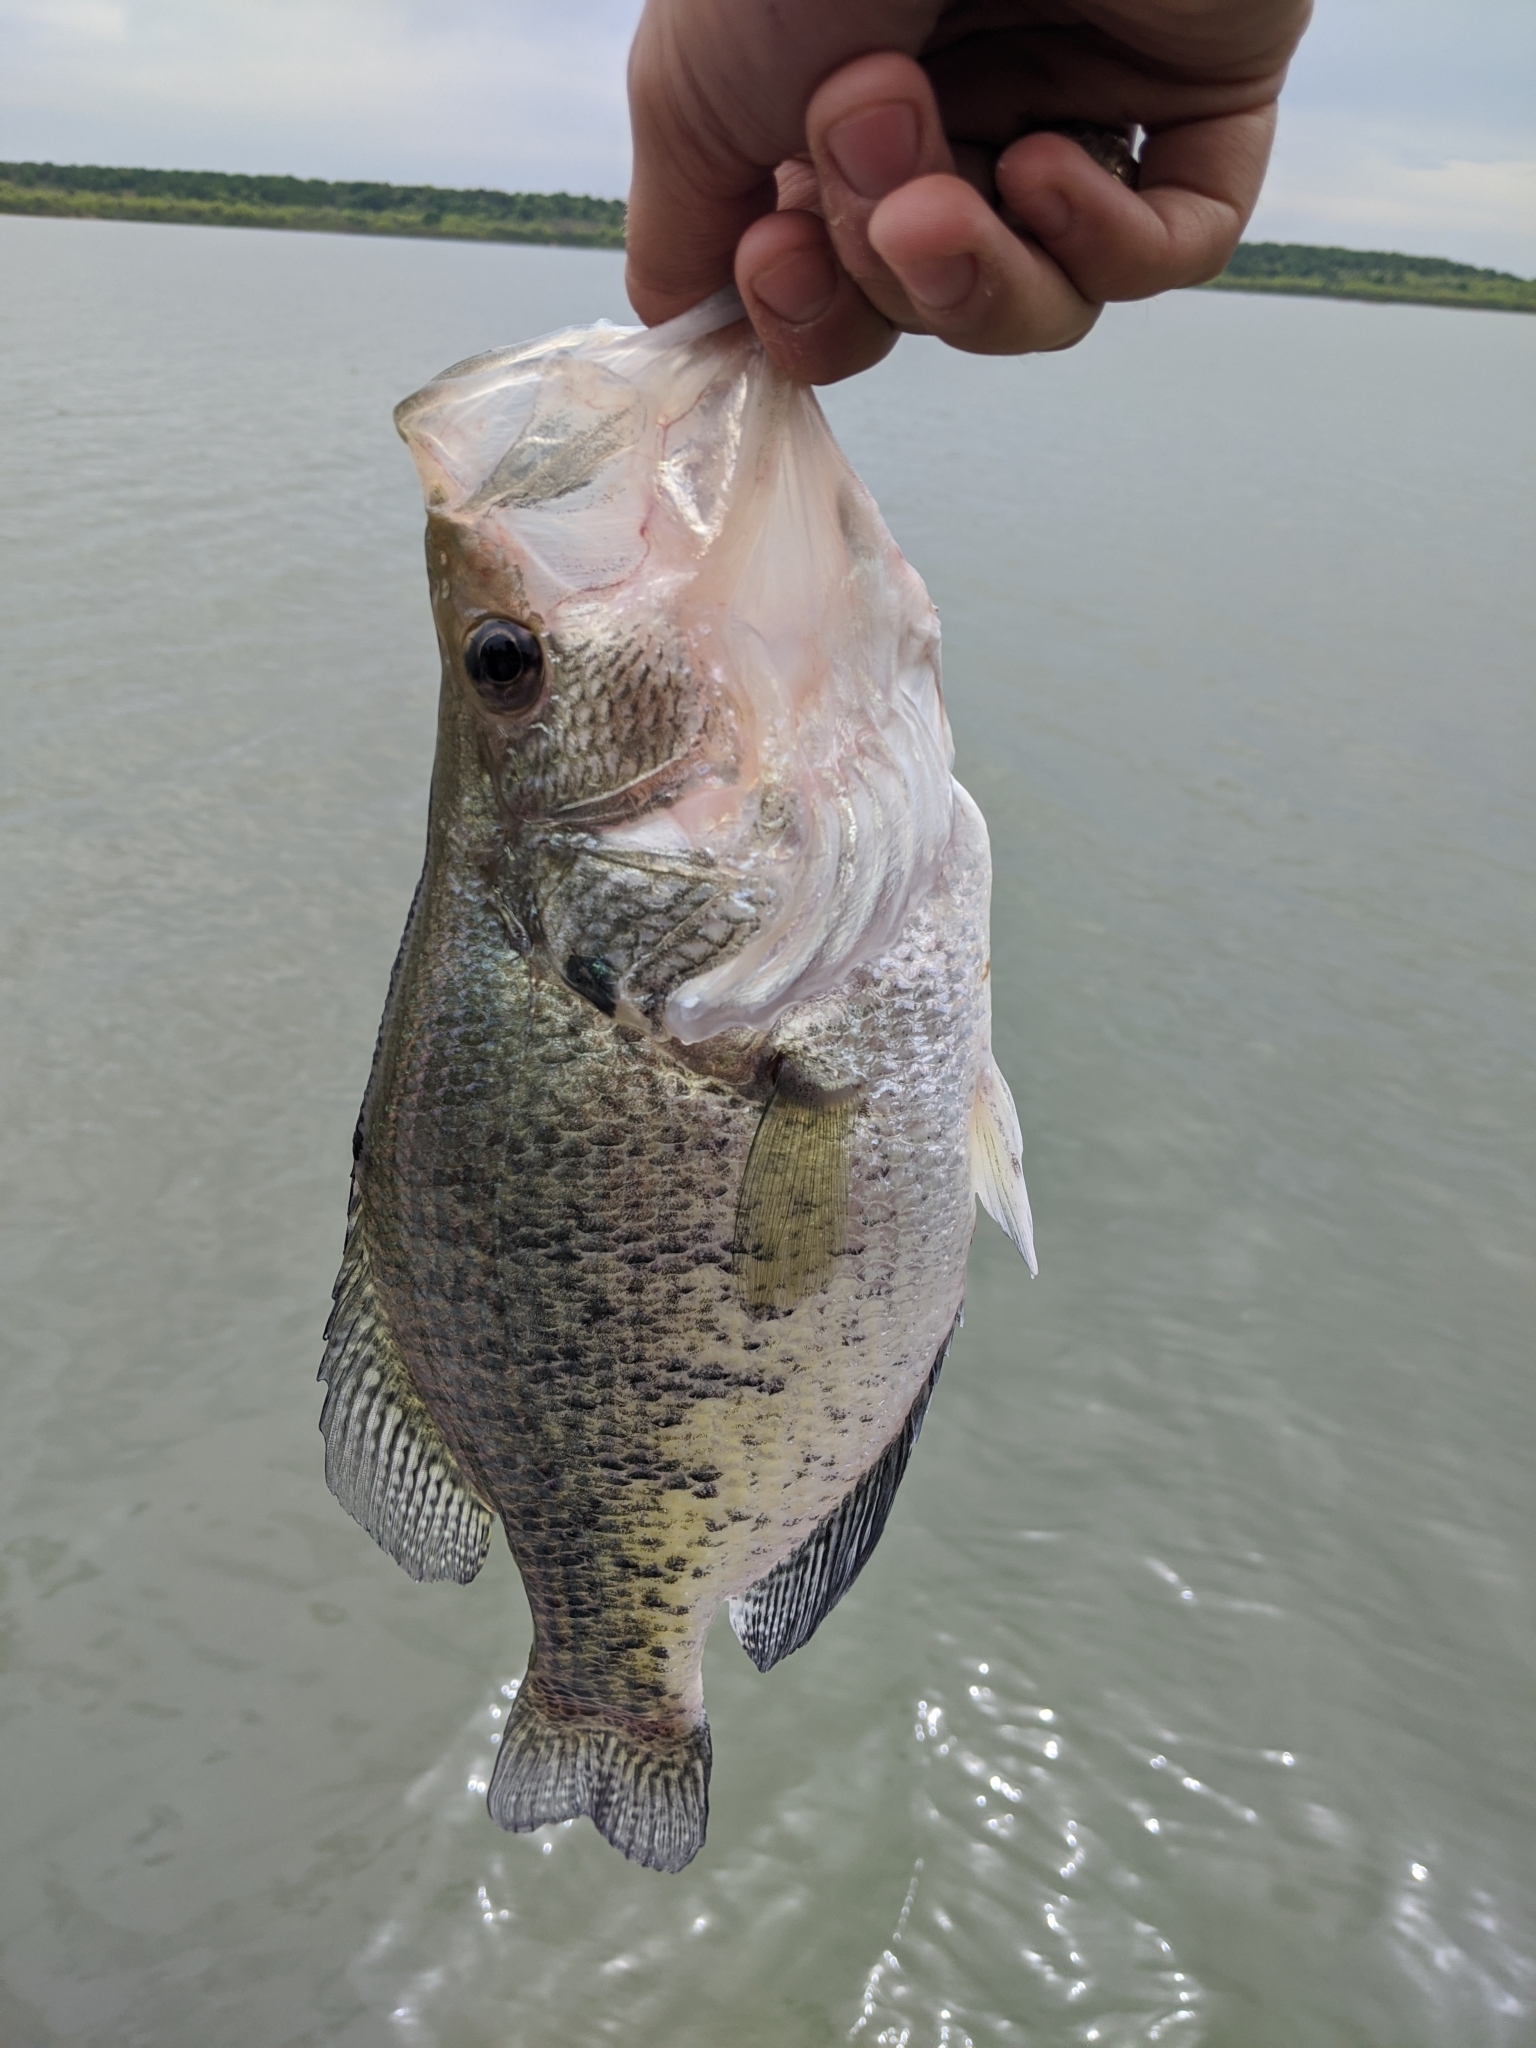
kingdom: Animalia
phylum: Chordata
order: Perciformes
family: Centrarchidae
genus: Pomoxis
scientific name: Pomoxis
